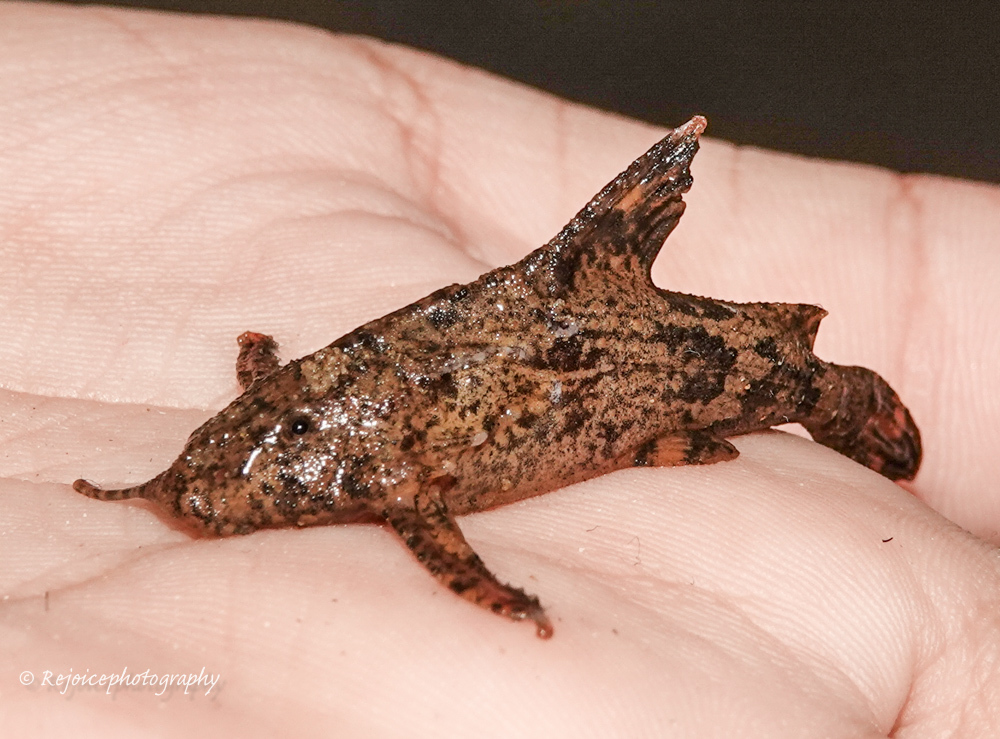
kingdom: Animalia
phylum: Chordata
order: Siluriformes
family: Erethistidae
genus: Hara
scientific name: Hara hara
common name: Kosi hara
